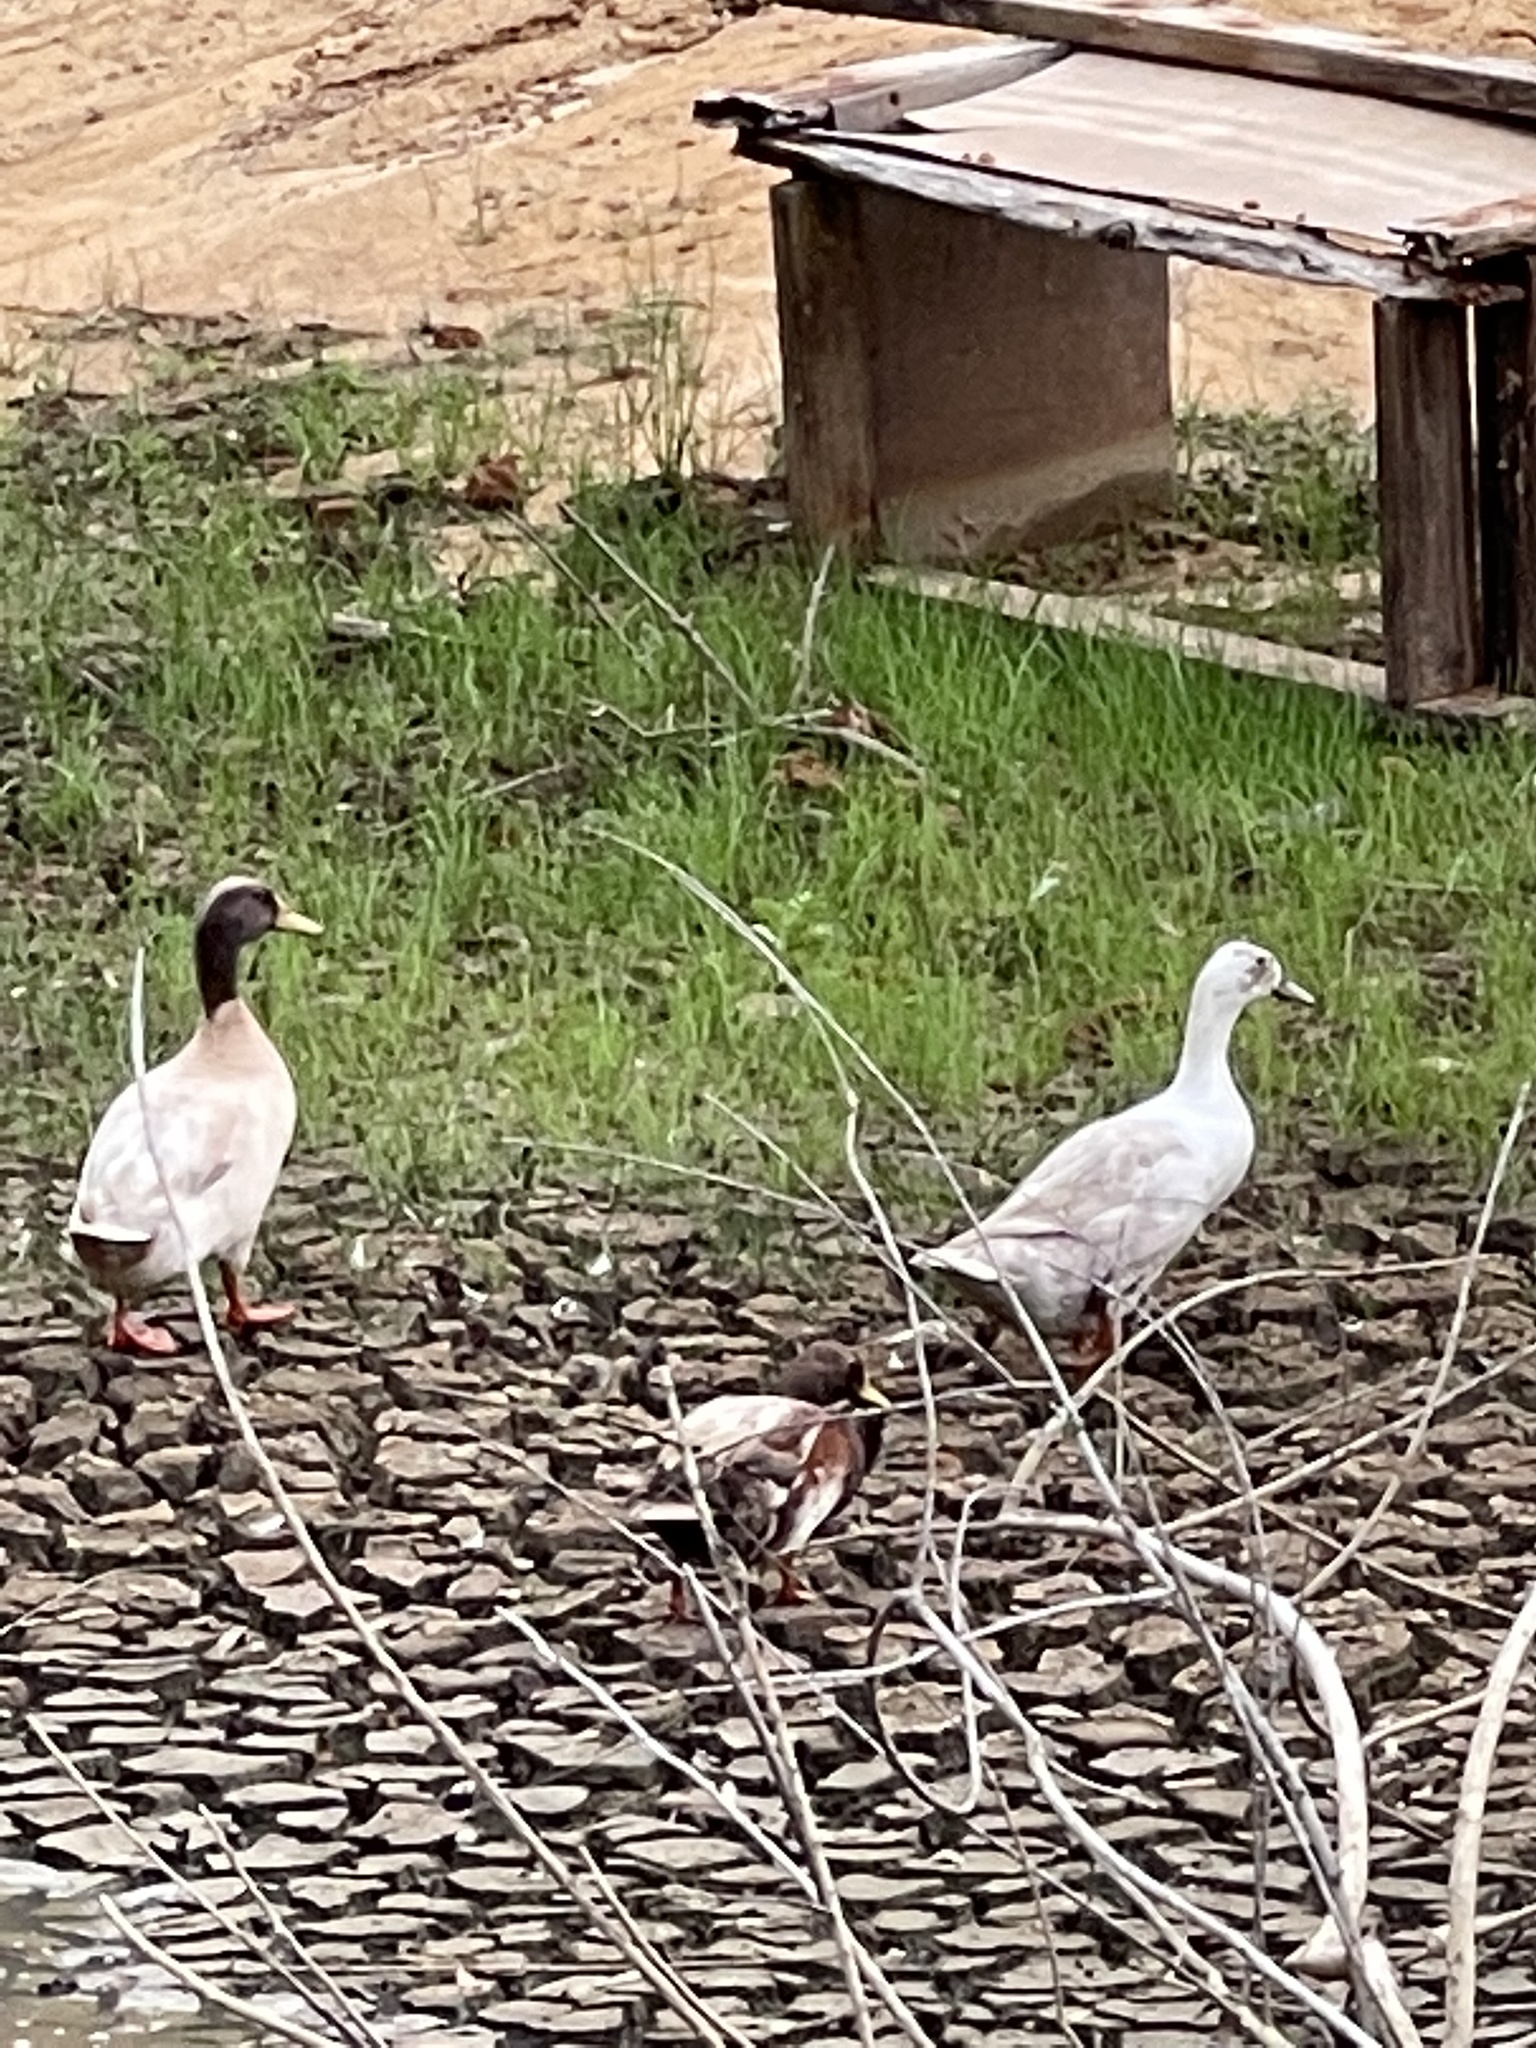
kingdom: Animalia
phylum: Chordata
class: Aves
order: Anseriformes
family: Anatidae
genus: Anas
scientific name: Anas platyrhynchos
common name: Mallard
